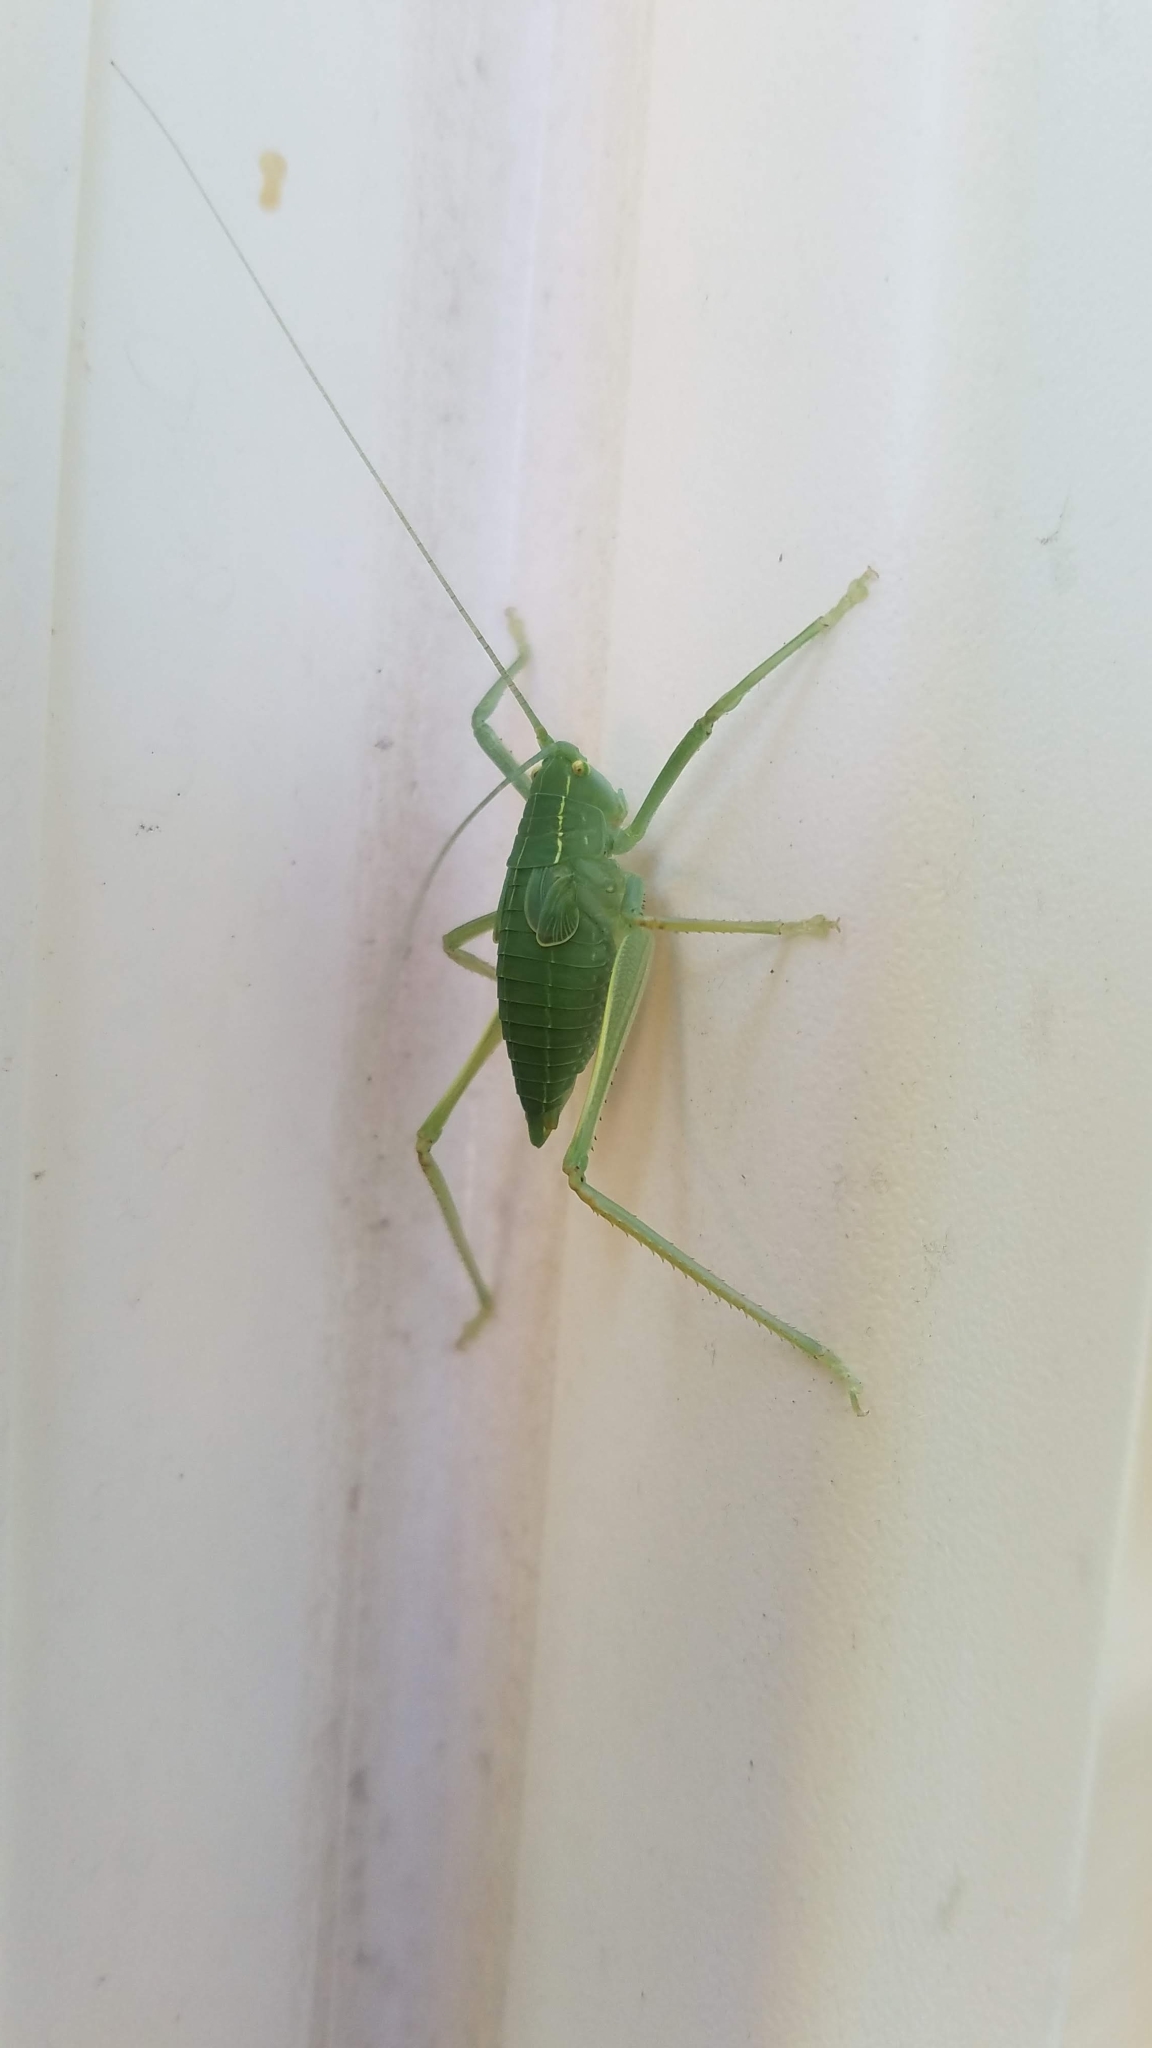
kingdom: Animalia
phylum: Arthropoda
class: Insecta
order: Orthoptera
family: Tettigoniidae
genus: Pterophylla
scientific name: Pterophylla camellifolia
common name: Common true katydid
